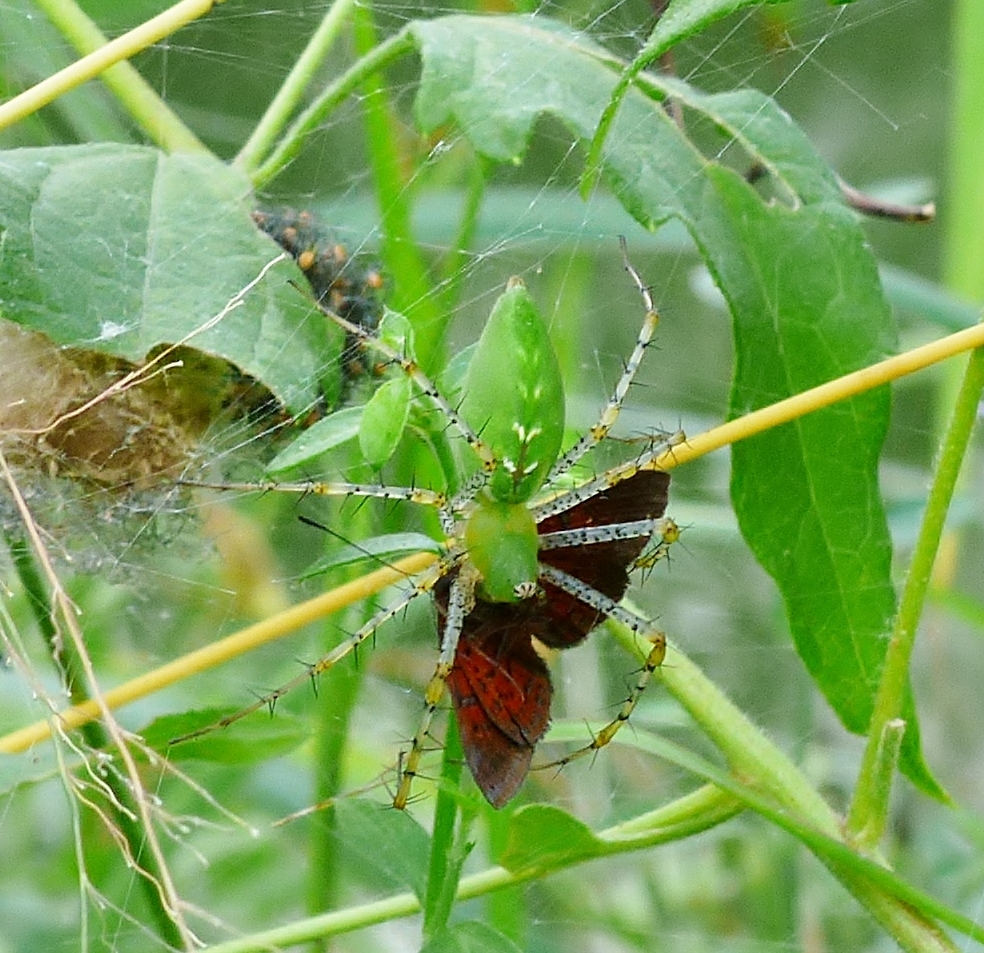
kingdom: Animalia
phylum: Arthropoda
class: Arachnida
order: Araneae
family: Oxyopidae
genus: Peucetia
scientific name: Peucetia viridans
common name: Lynx spiders
